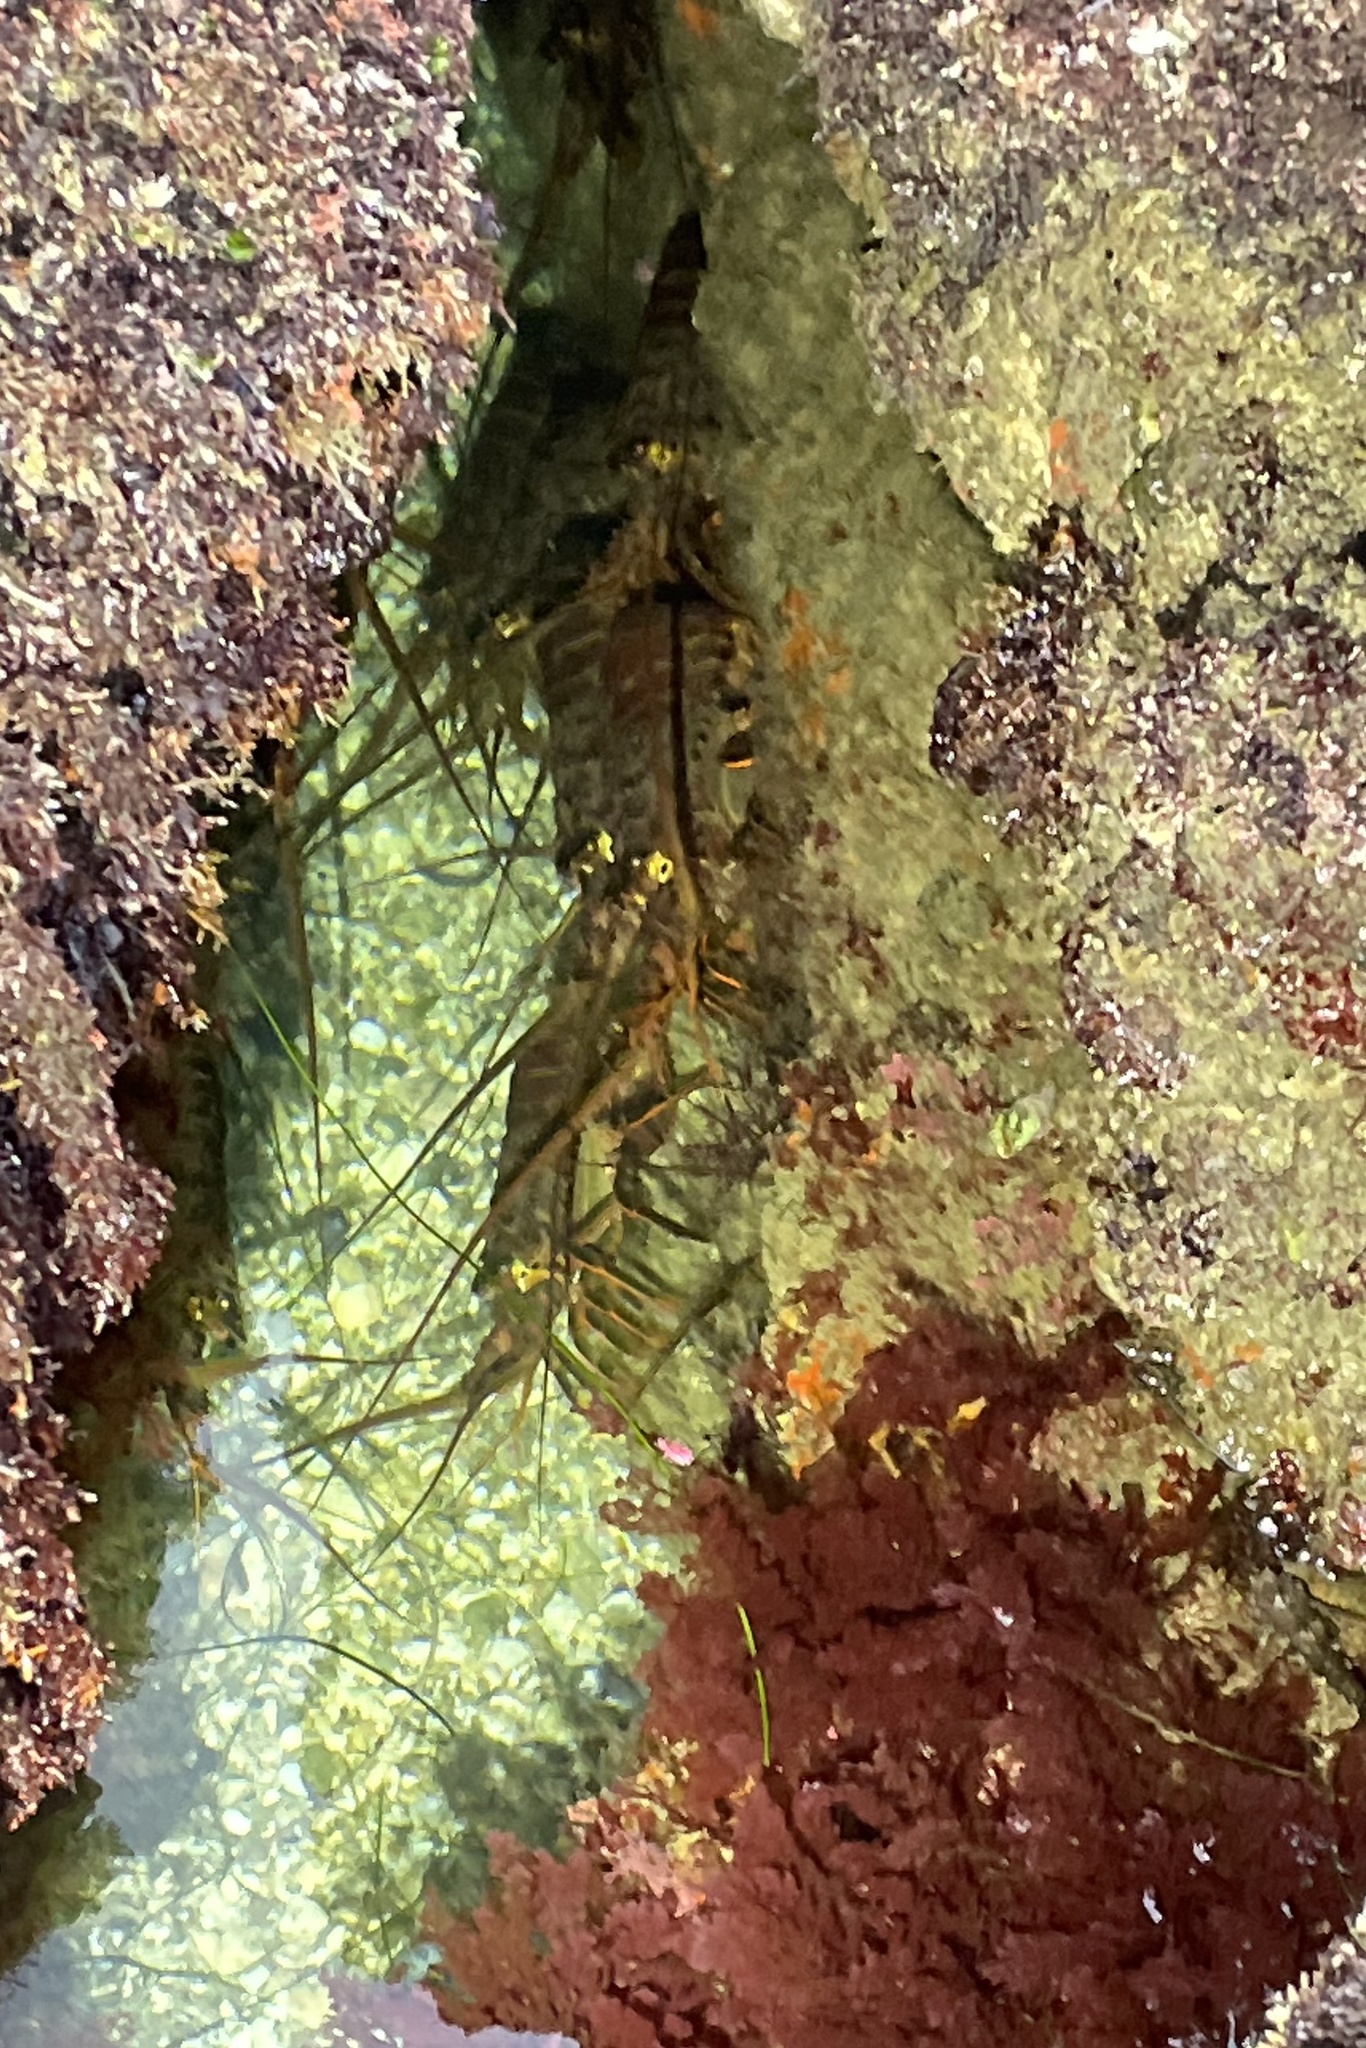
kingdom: Animalia
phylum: Arthropoda
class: Malacostraca
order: Decapoda
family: Palinuridae
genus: Panulirus
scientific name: Panulirus interruptus
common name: California spiny lobster
